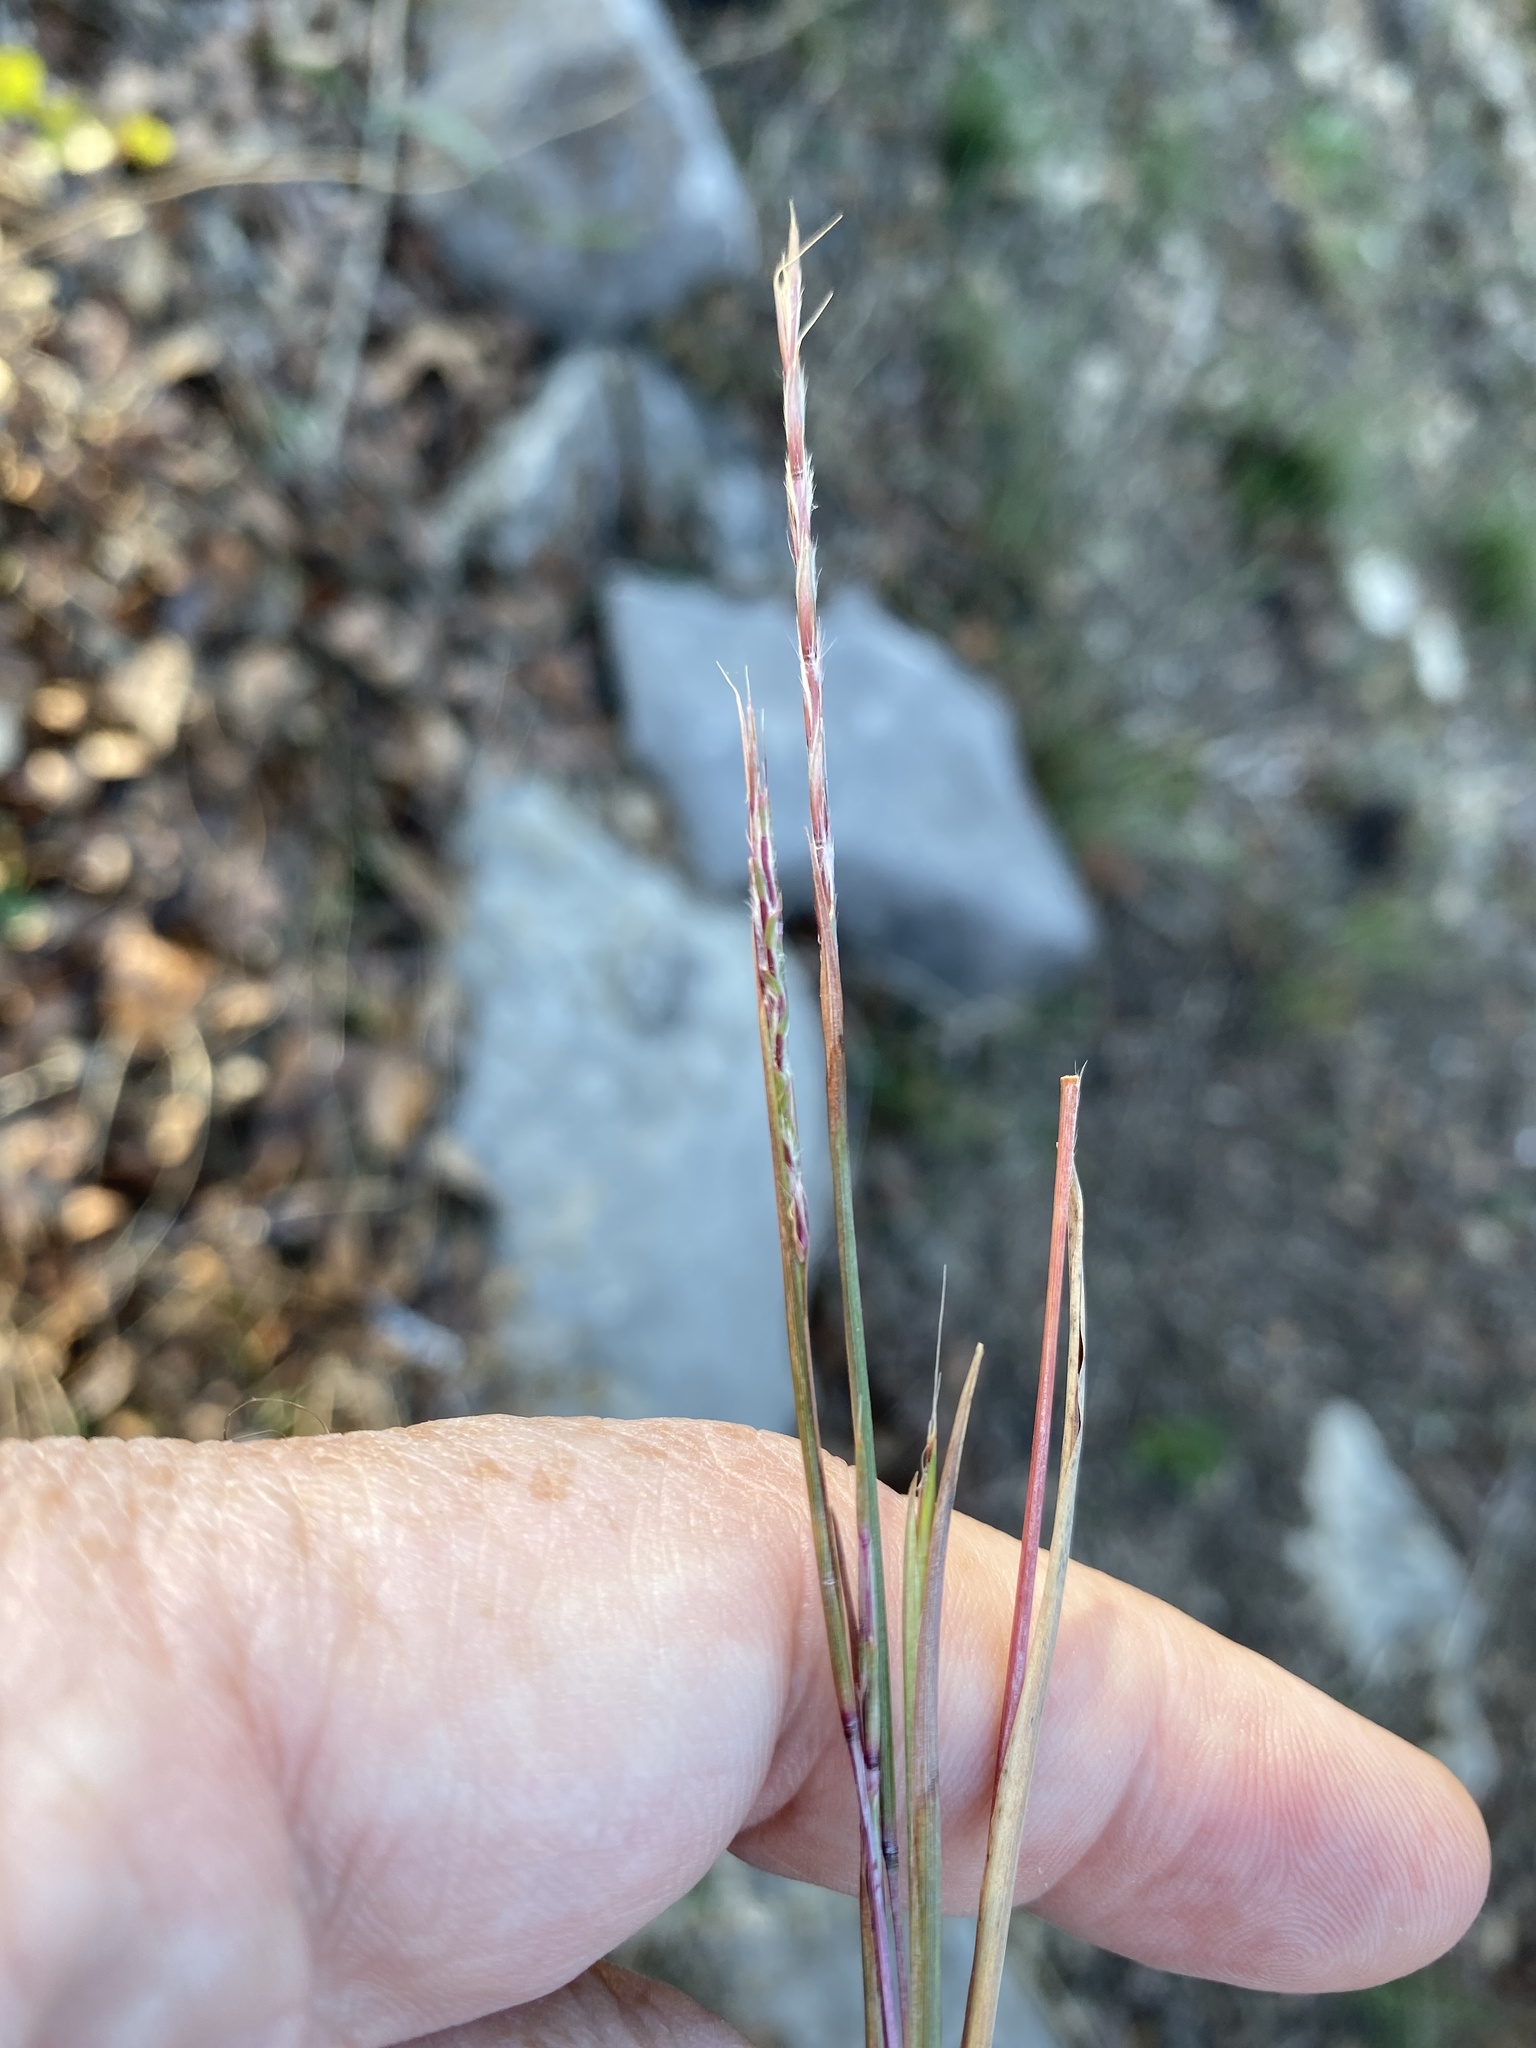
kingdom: Plantae
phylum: Tracheophyta
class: Liliopsida
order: Poales
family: Poaceae
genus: Schizachyrium
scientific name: Schizachyrium scoparium
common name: Little bluestem
